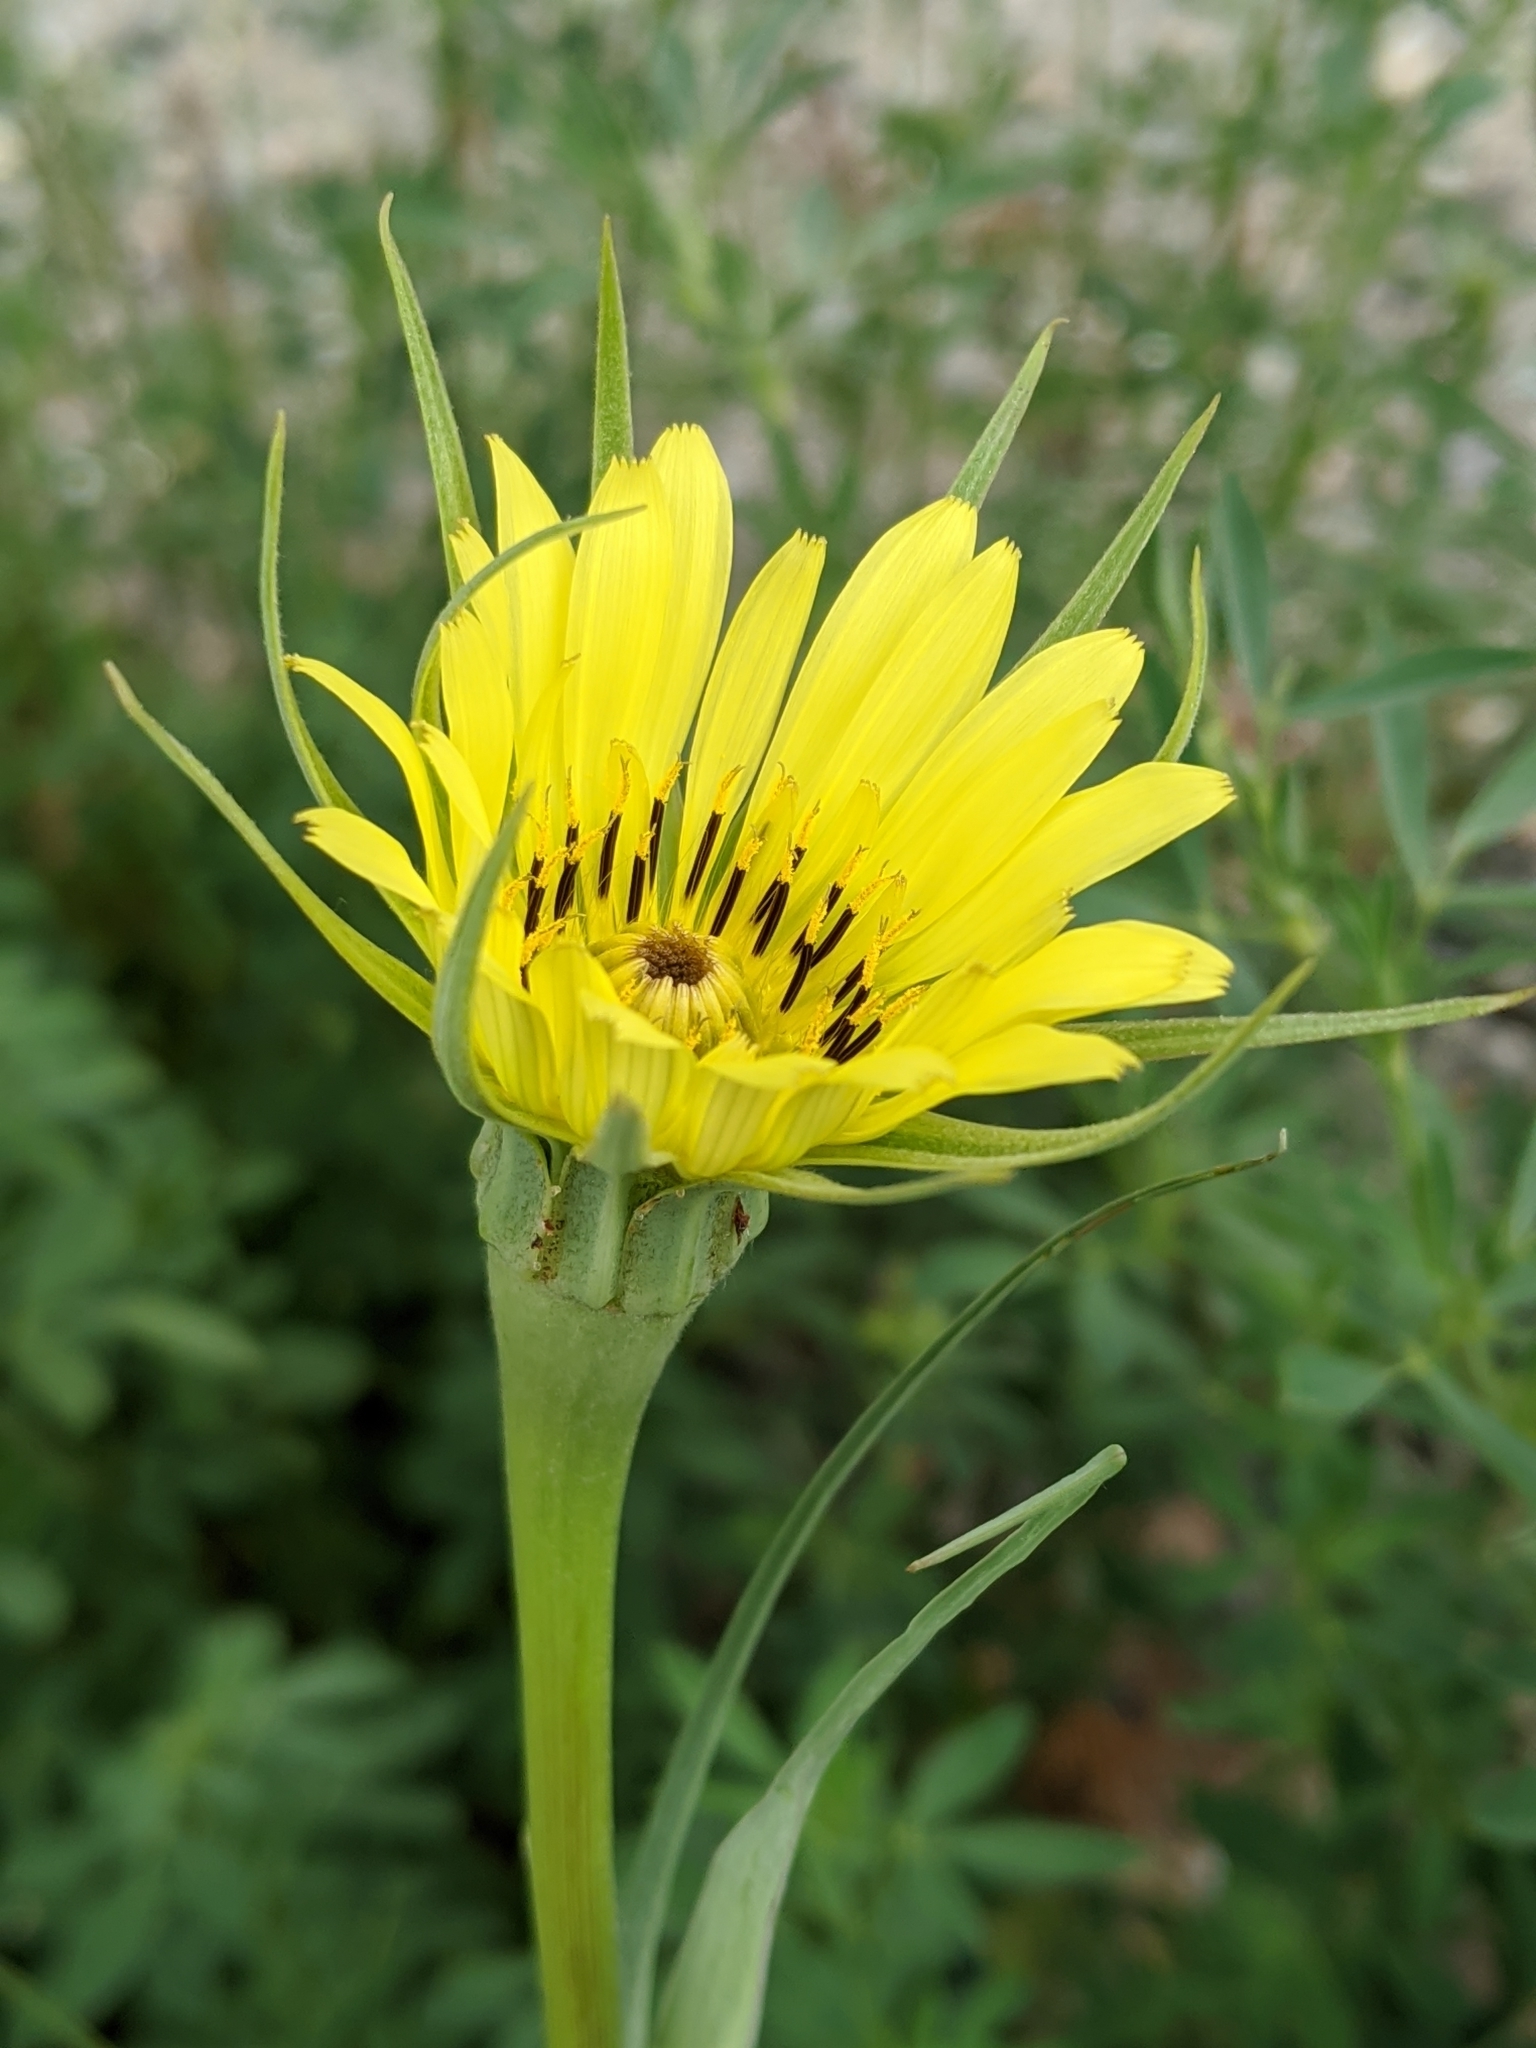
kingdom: Plantae
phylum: Tracheophyta
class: Magnoliopsida
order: Asterales
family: Asteraceae
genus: Tragopogon
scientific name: Tragopogon dubius
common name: Yellow salsify
